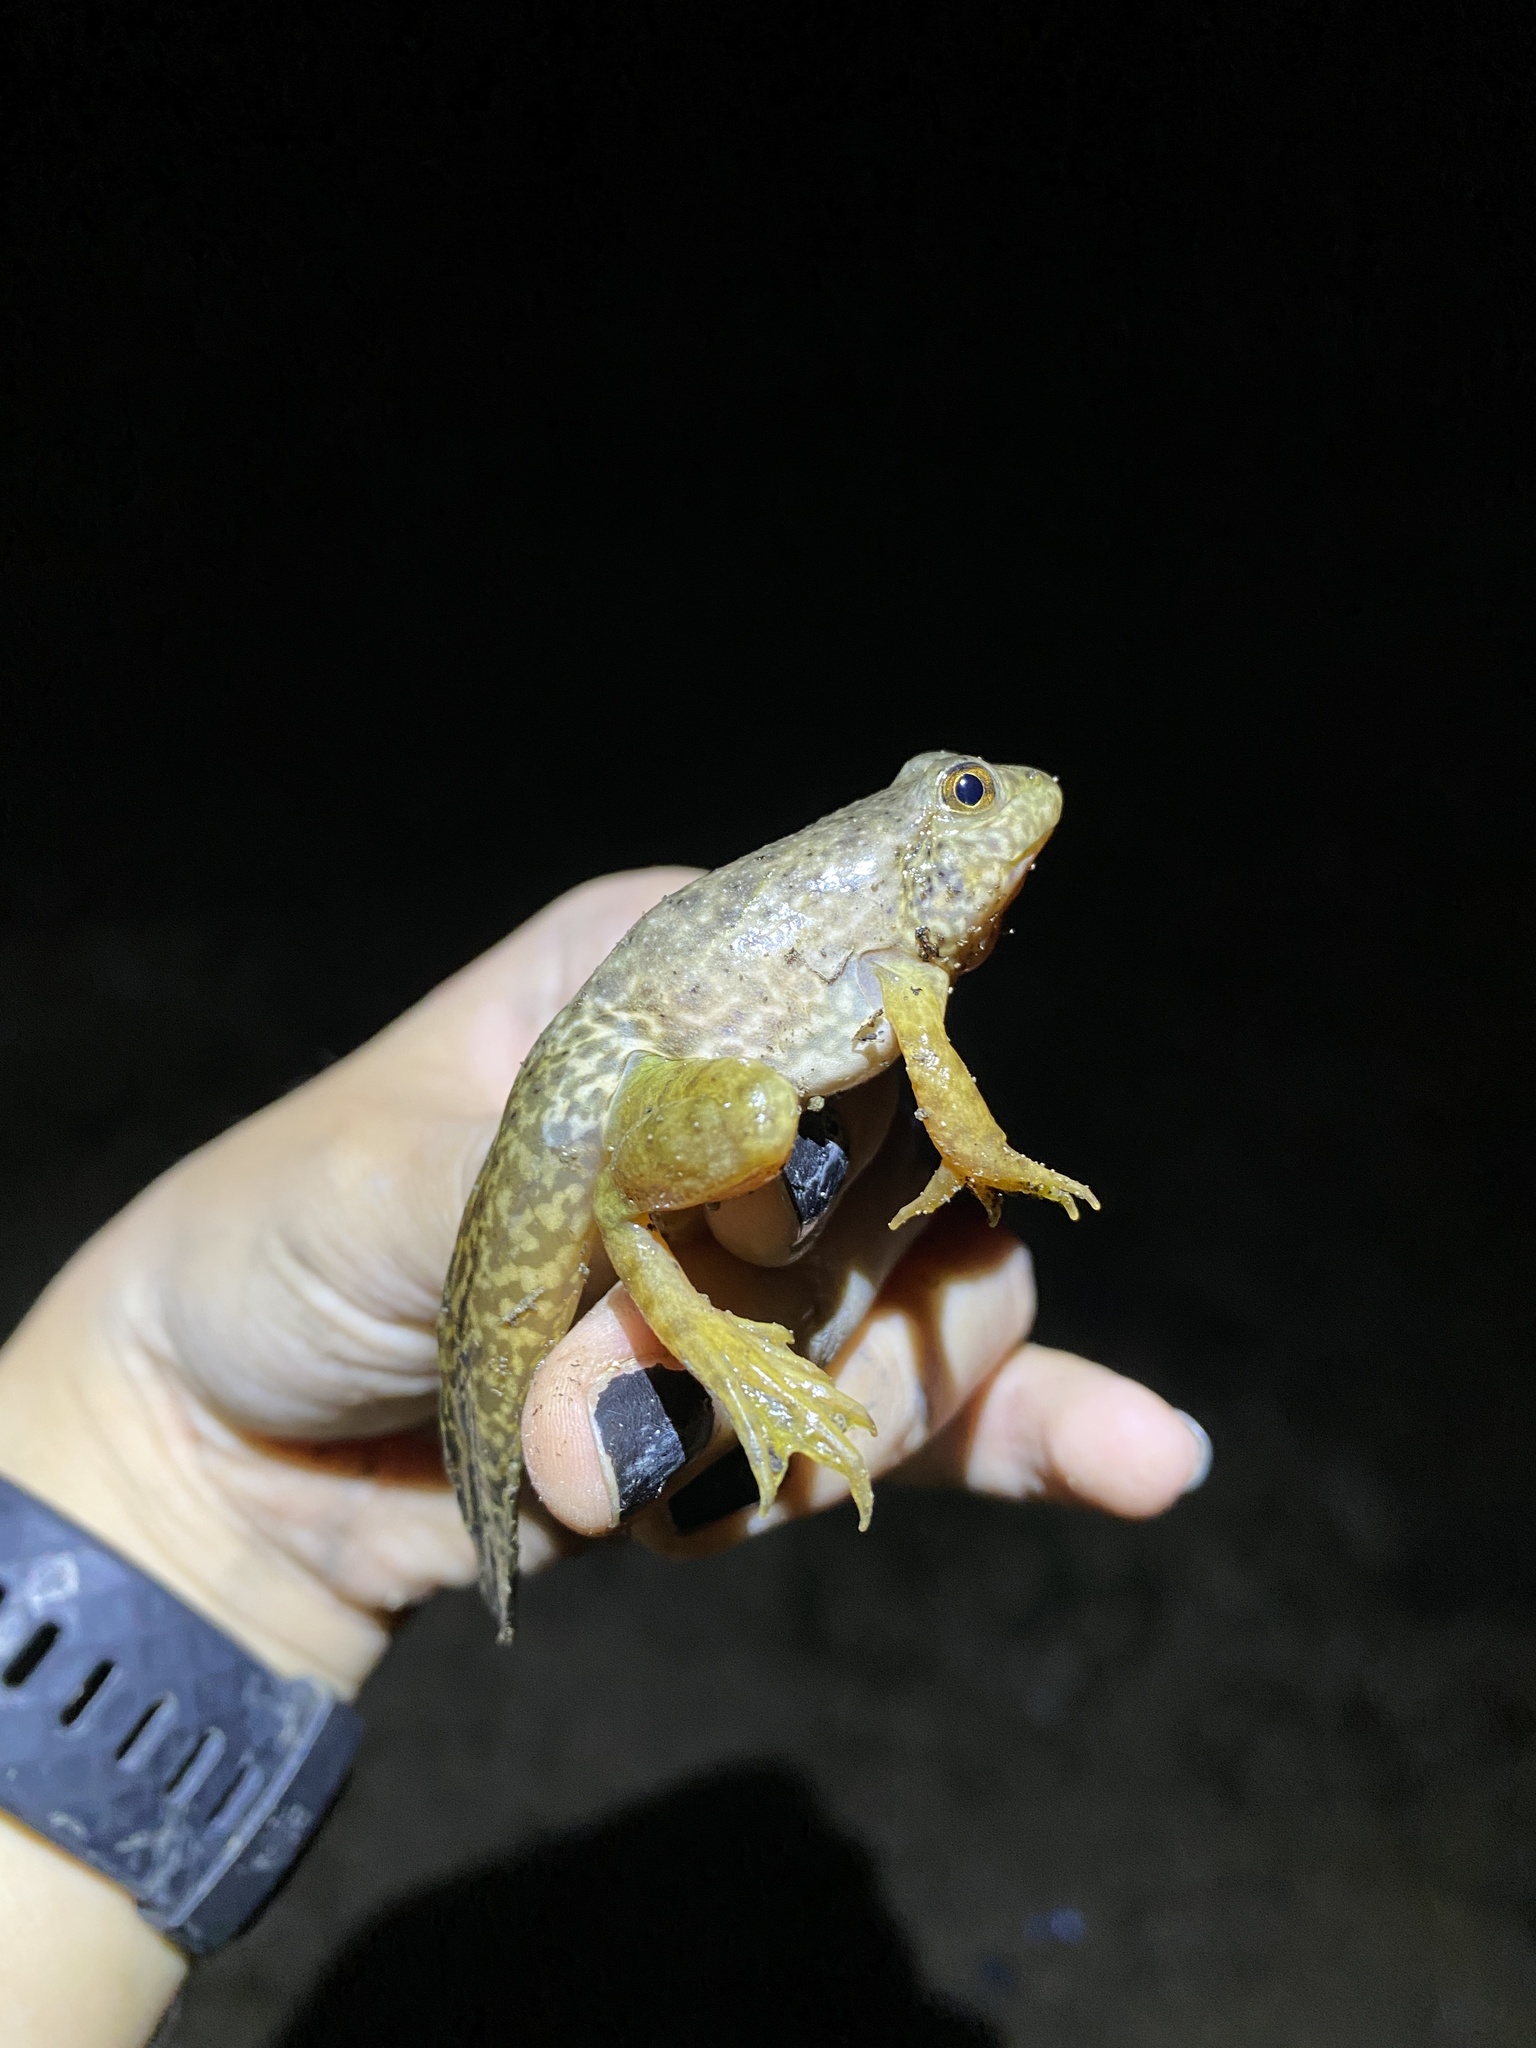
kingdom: Animalia
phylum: Chordata
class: Amphibia
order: Anura
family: Ranidae
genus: Lithobates
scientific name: Lithobates catesbeianus
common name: American bullfrog
